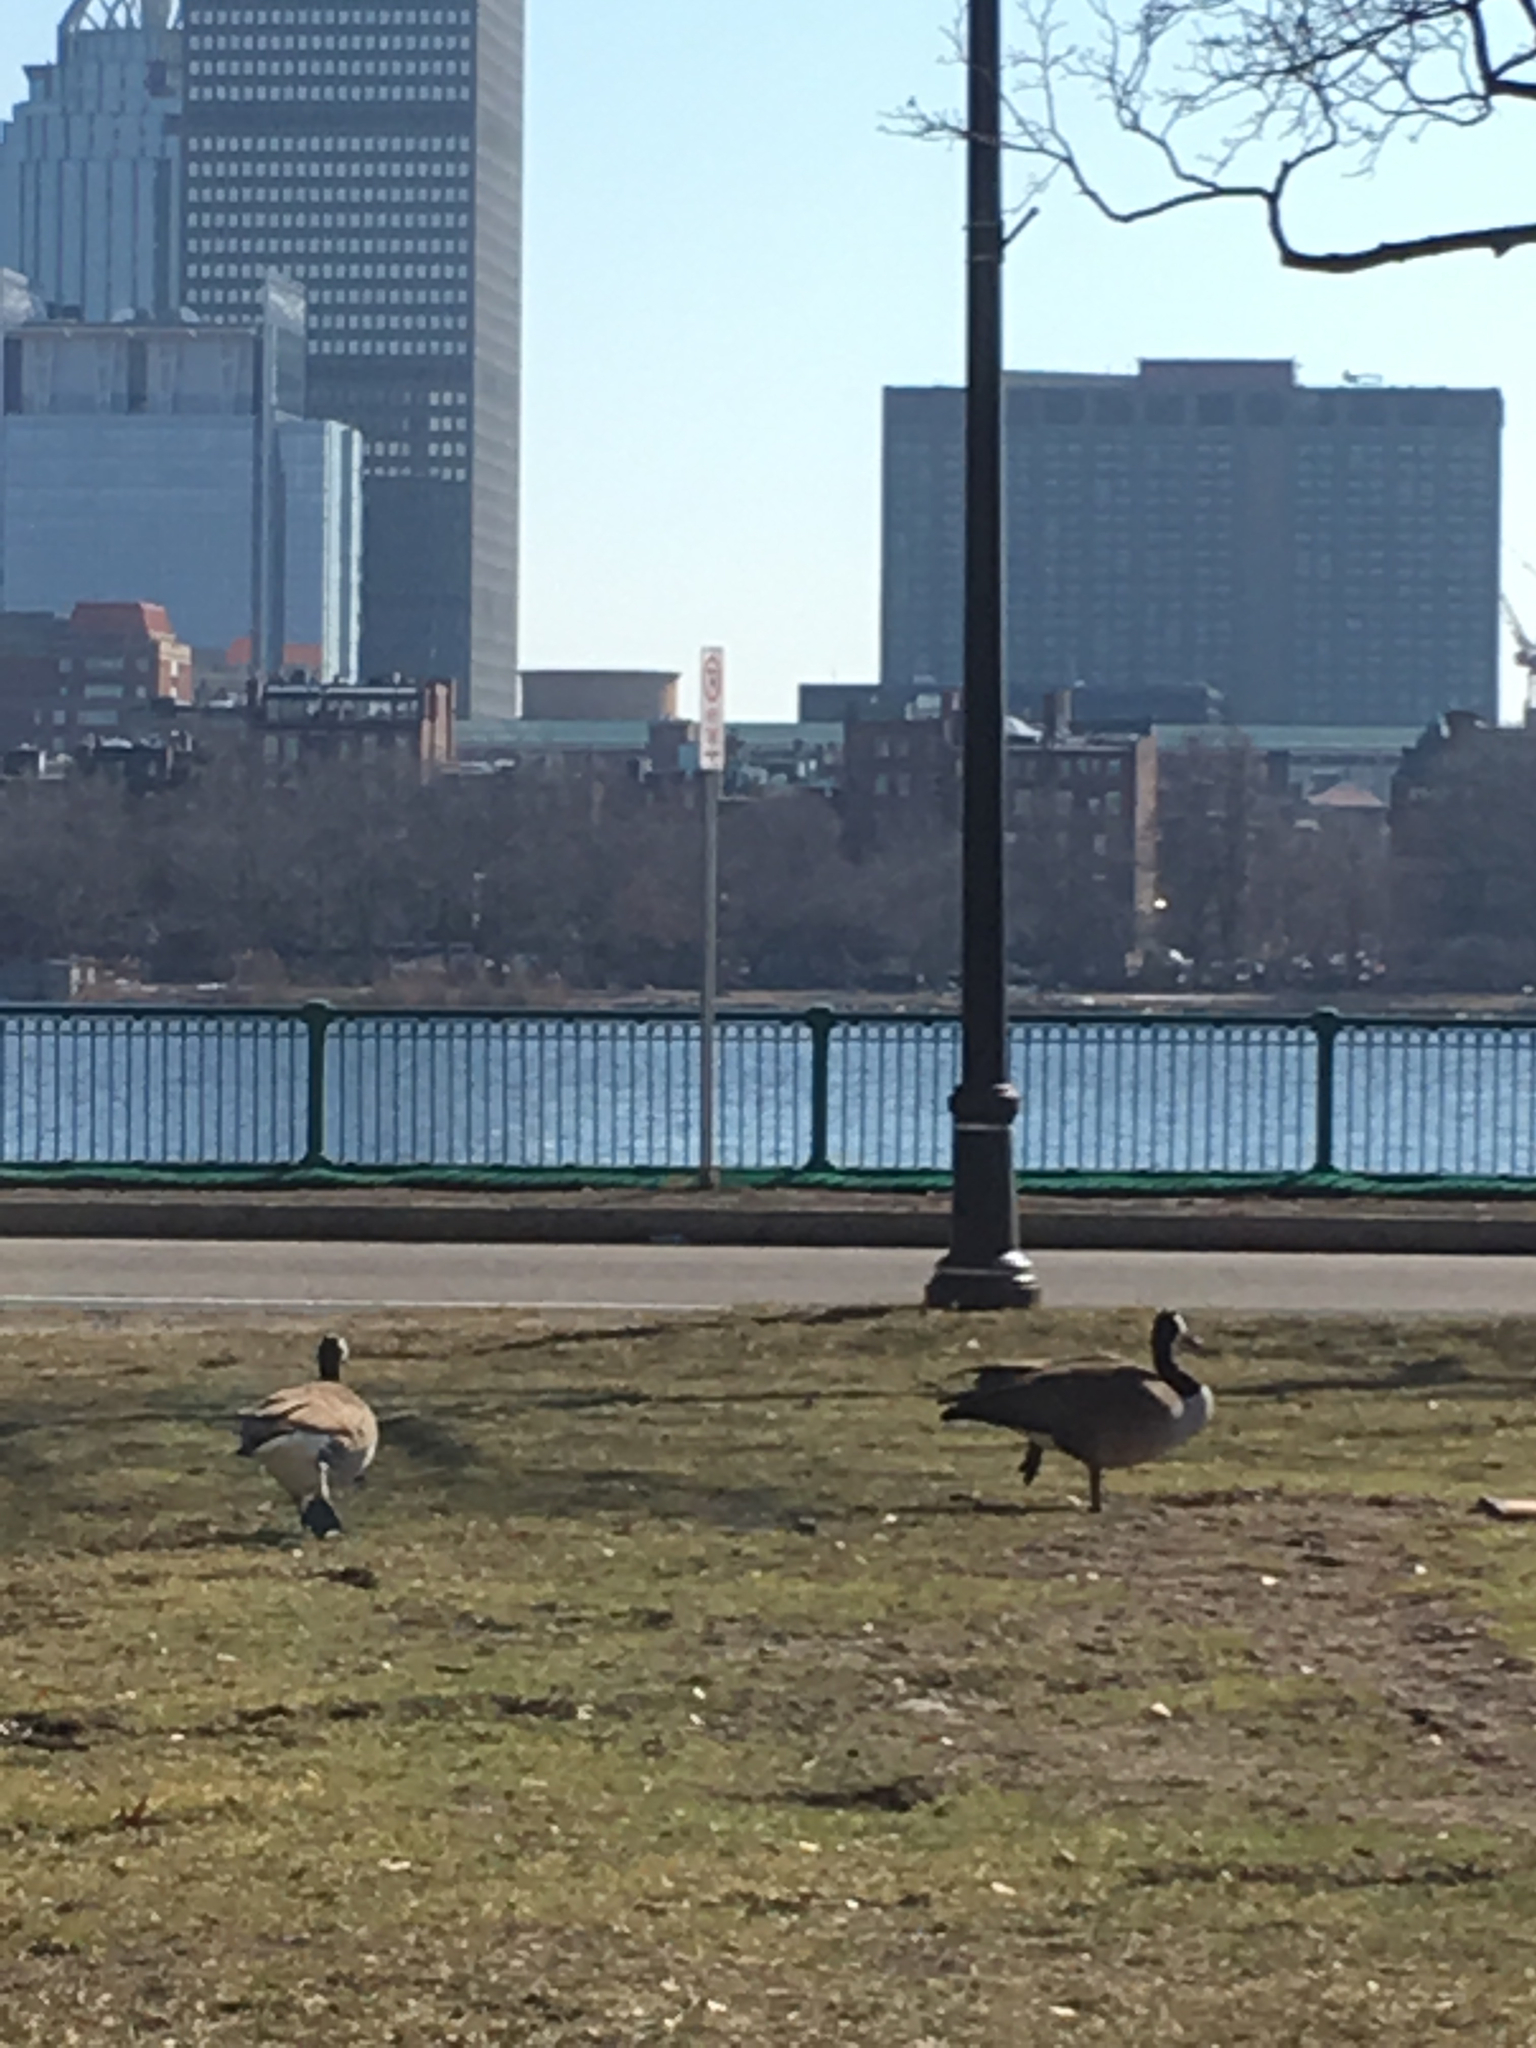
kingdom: Animalia
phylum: Chordata
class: Aves
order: Anseriformes
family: Anatidae
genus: Branta
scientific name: Branta canadensis
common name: Canada goose
